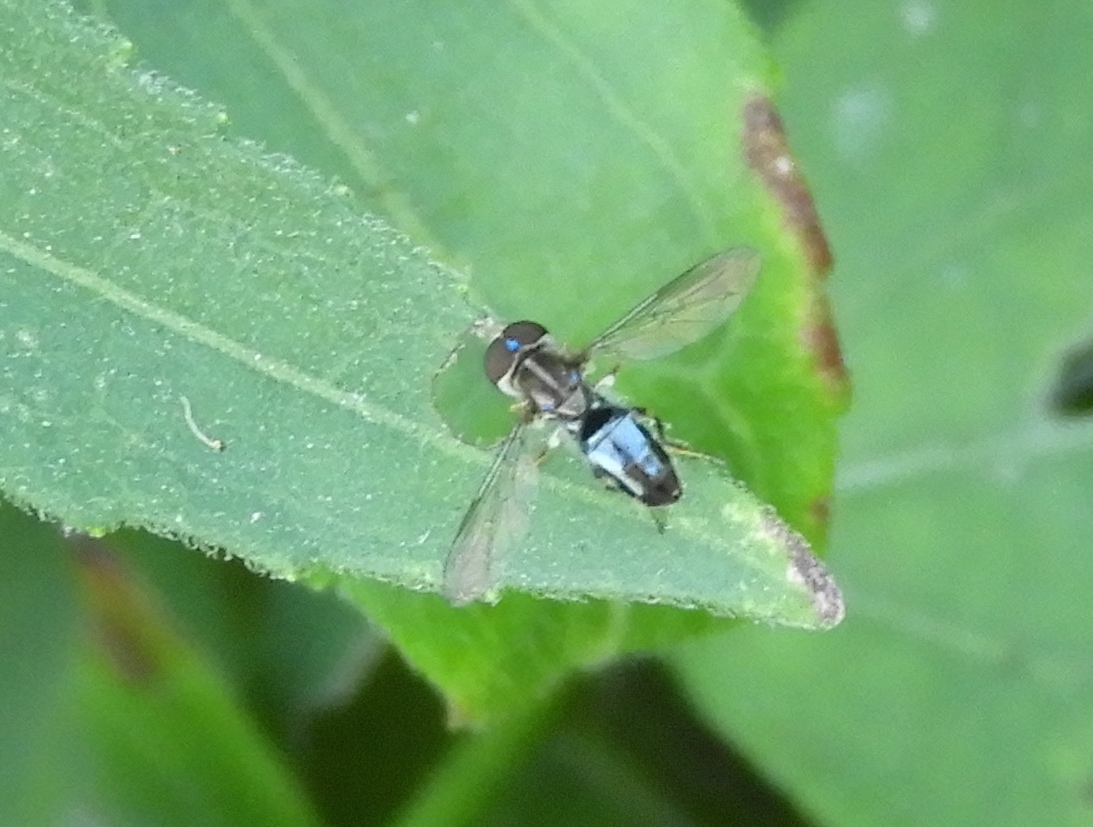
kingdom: Animalia
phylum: Arthropoda
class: Insecta
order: Diptera
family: Syrphidae
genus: Toxomerus
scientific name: Toxomerus
